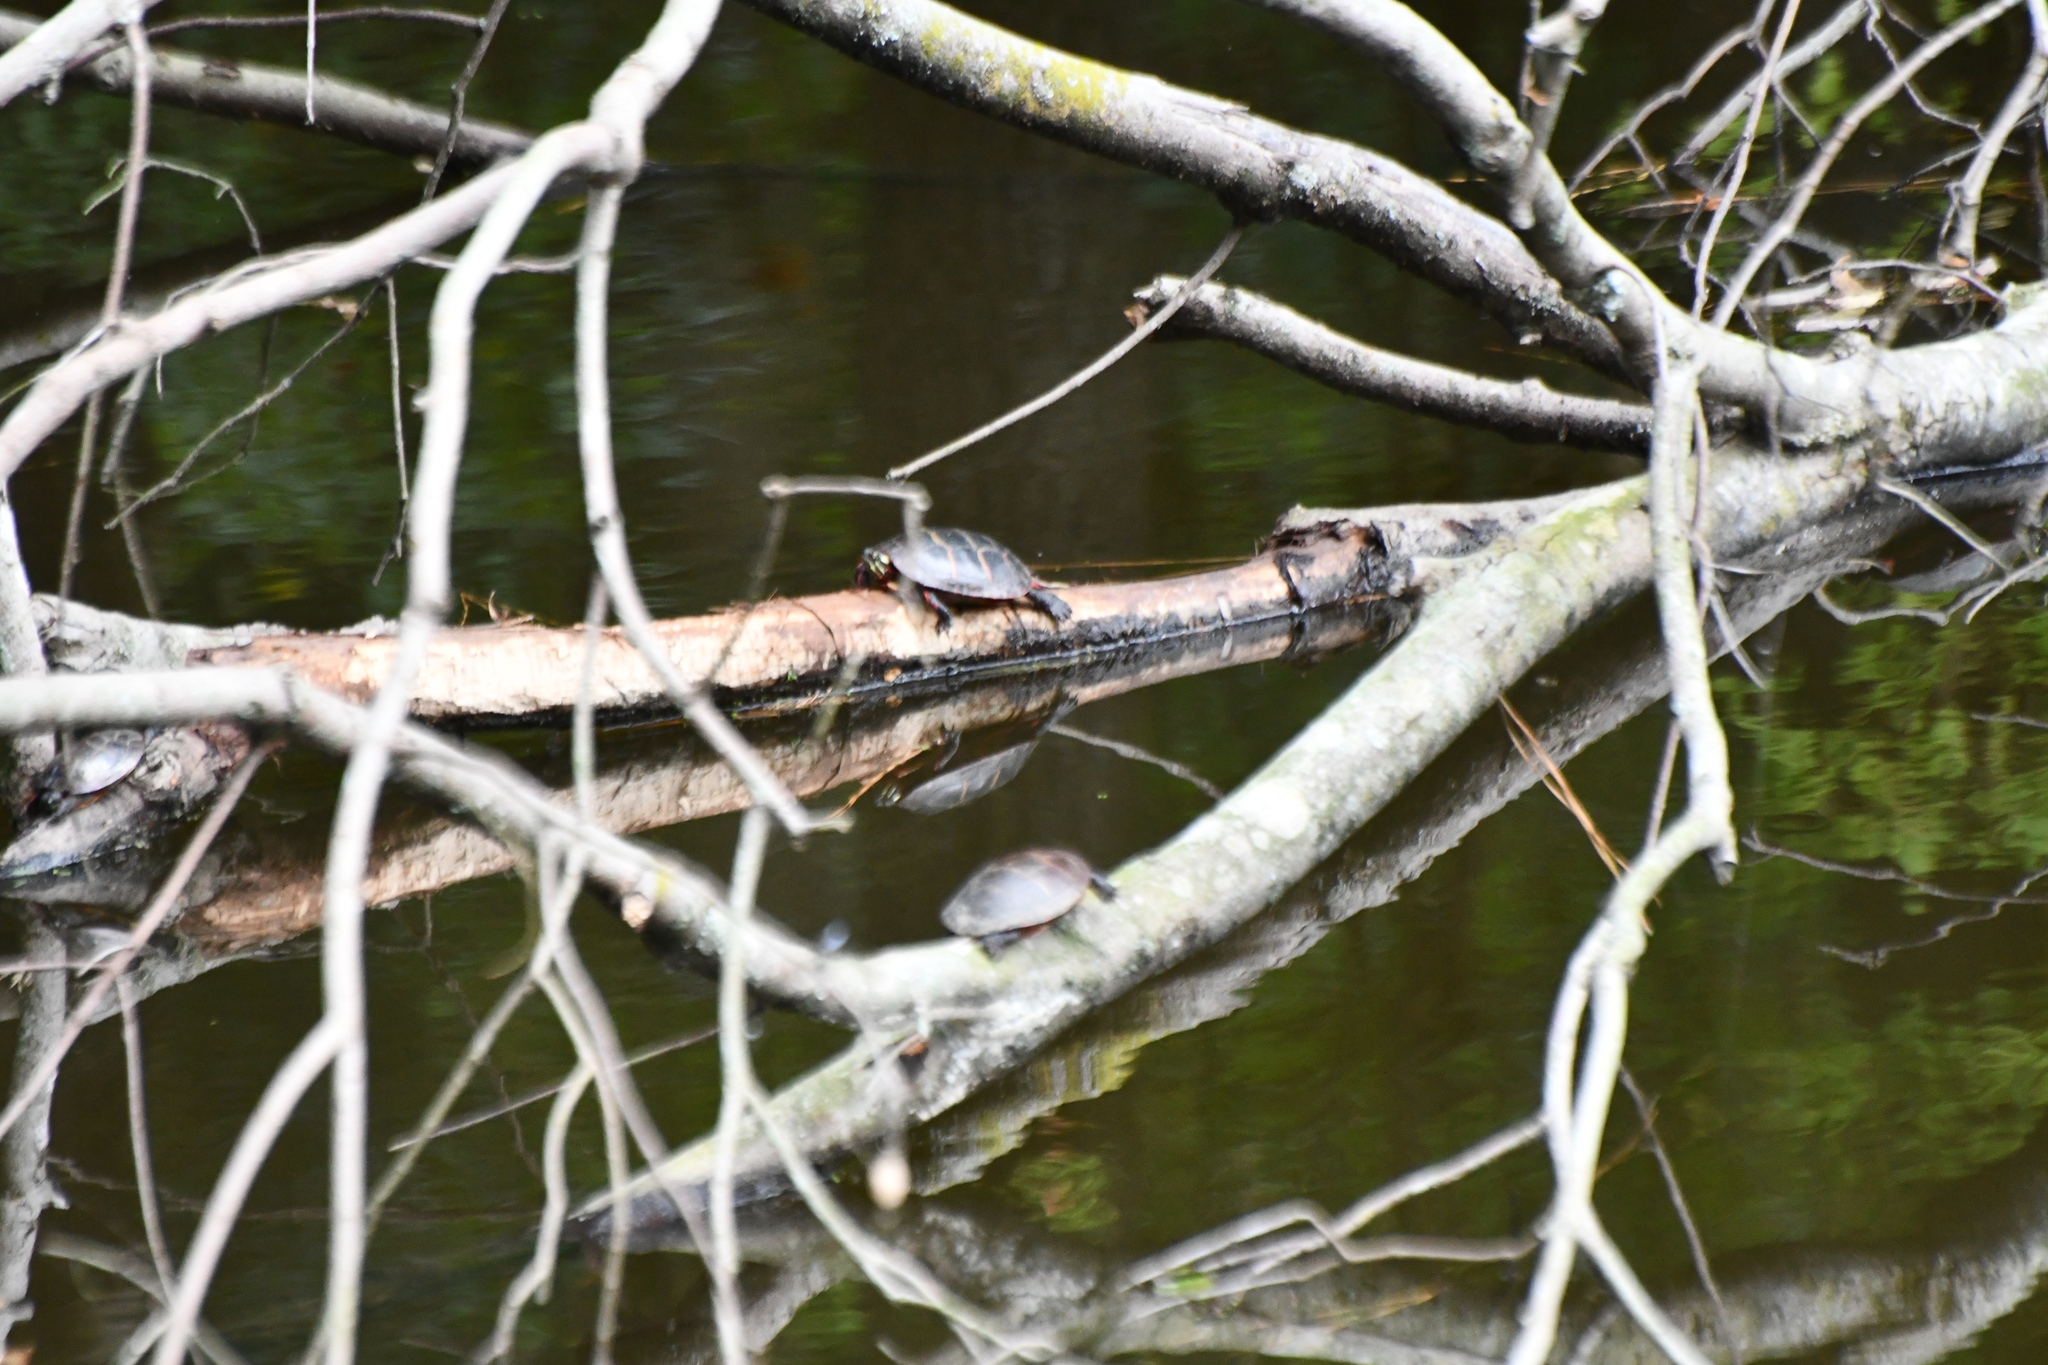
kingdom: Animalia
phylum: Chordata
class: Testudines
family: Emydidae
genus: Chrysemys
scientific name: Chrysemys picta
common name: Painted turtle
